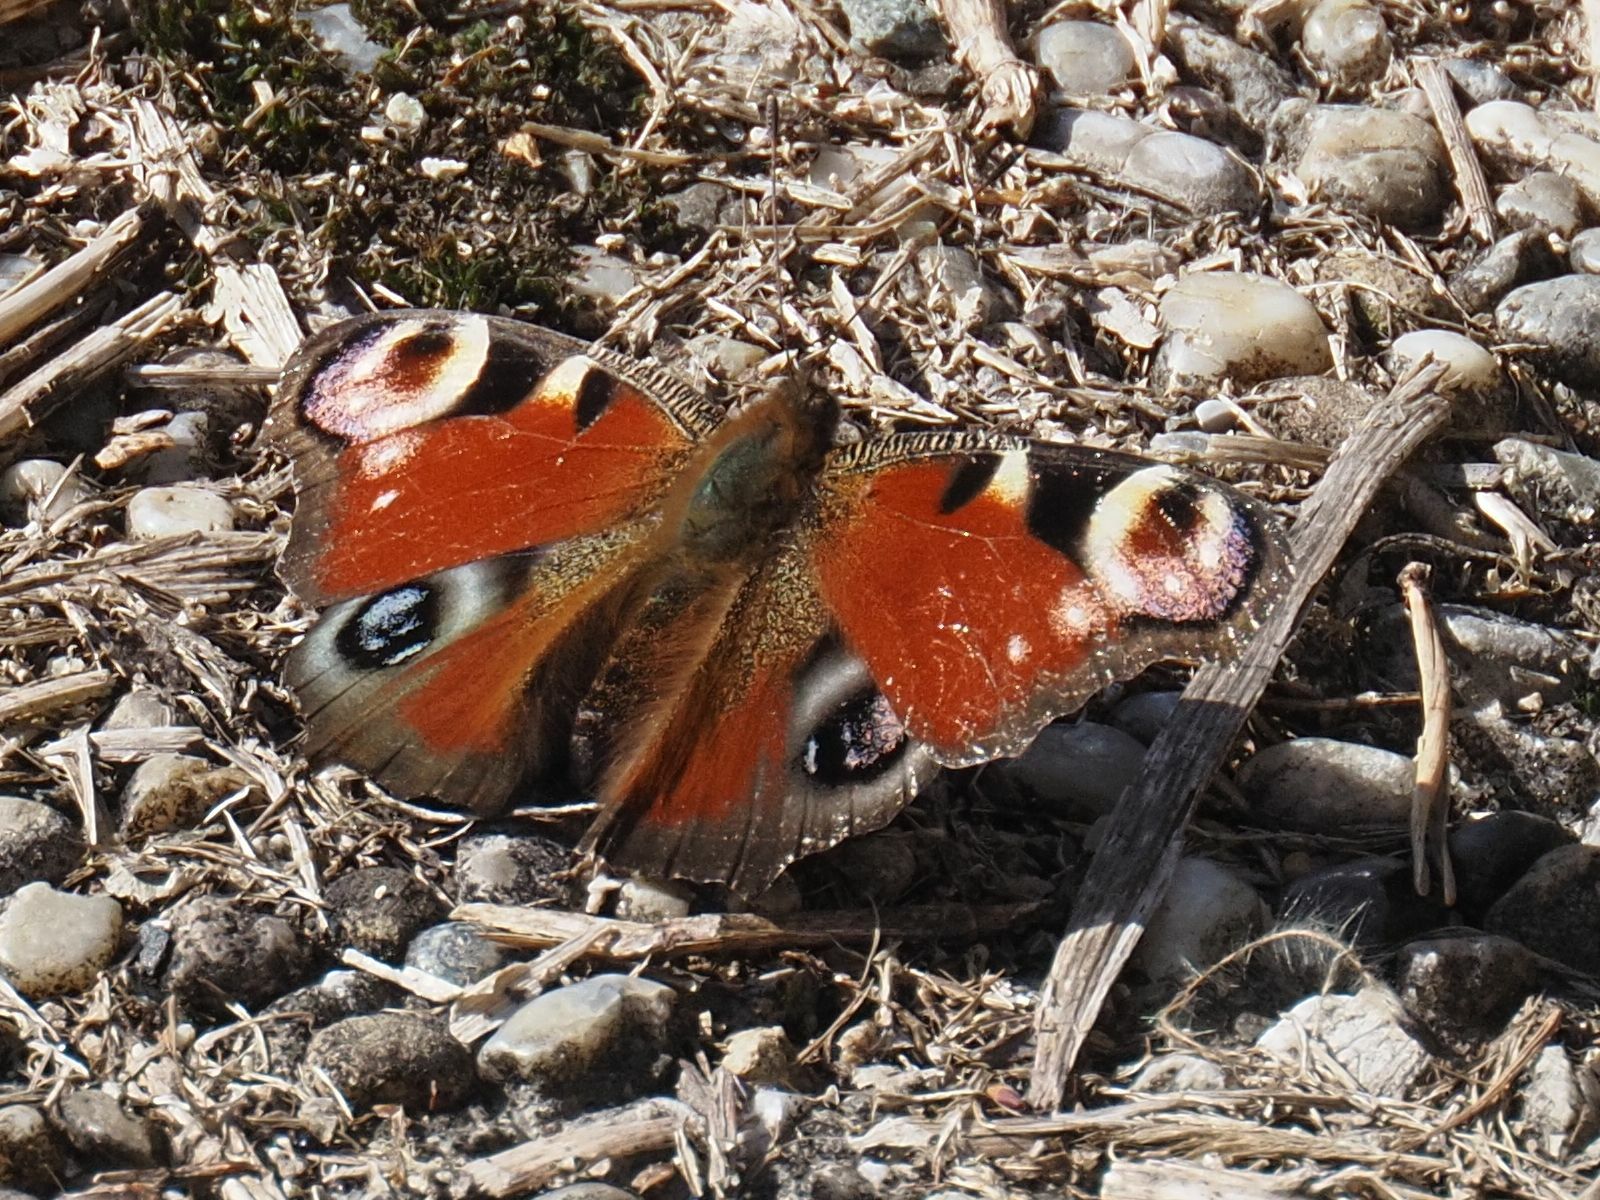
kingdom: Animalia
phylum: Arthropoda
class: Insecta
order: Lepidoptera
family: Nymphalidae
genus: Aglais
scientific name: Aglais io
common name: Peacock
